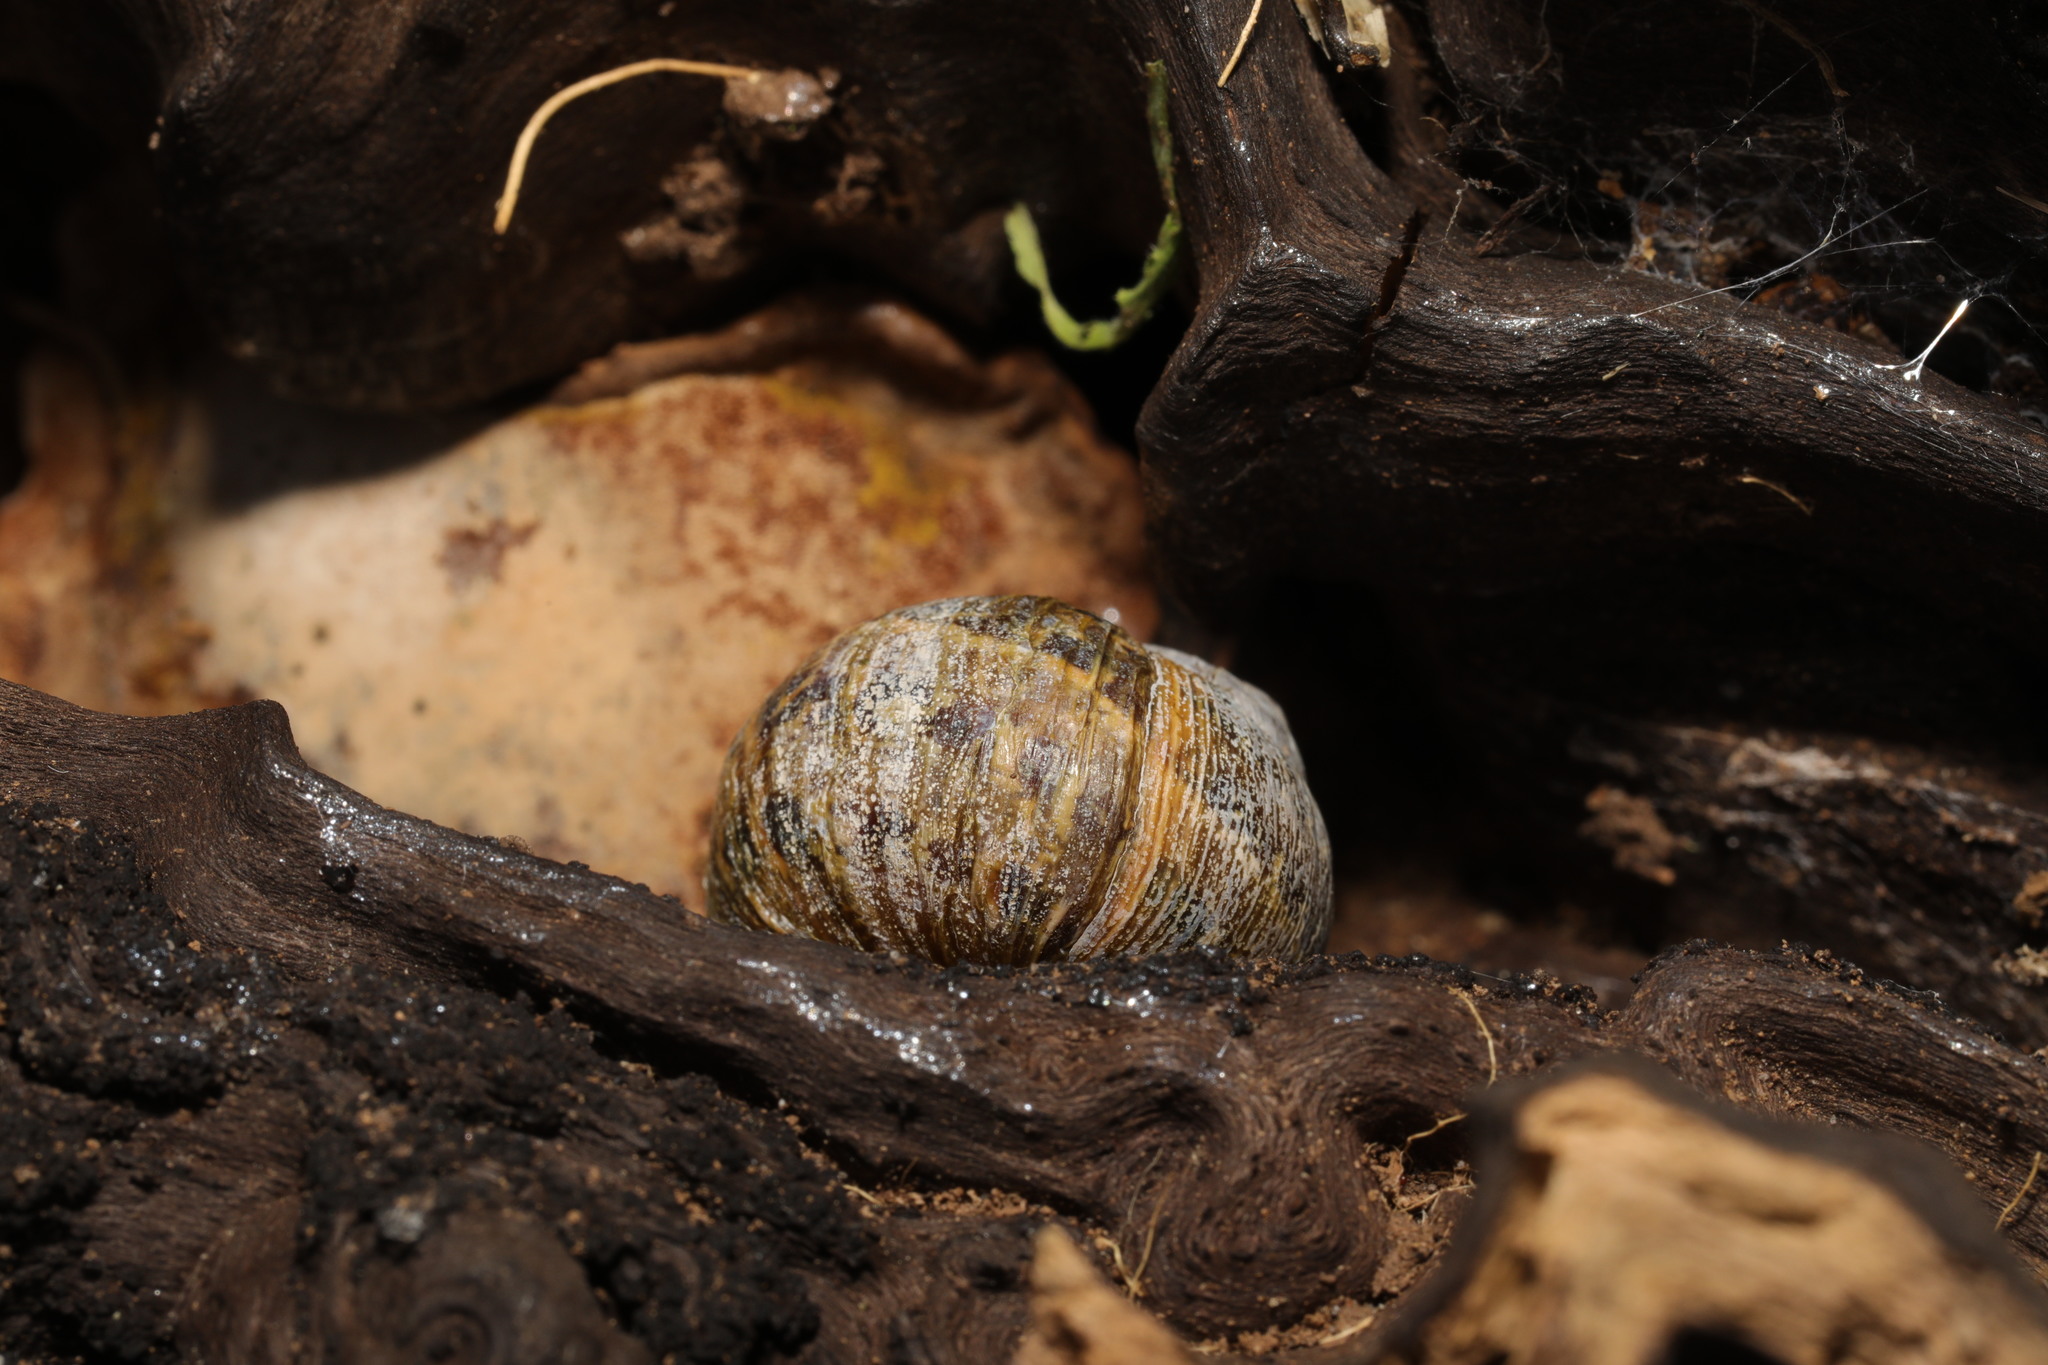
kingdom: Animalia
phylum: Mollusca
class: Gastropoda
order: Stylommatophora
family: Helicidae
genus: Cornu
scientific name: Cornu aspersum
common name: Brown garden snail
